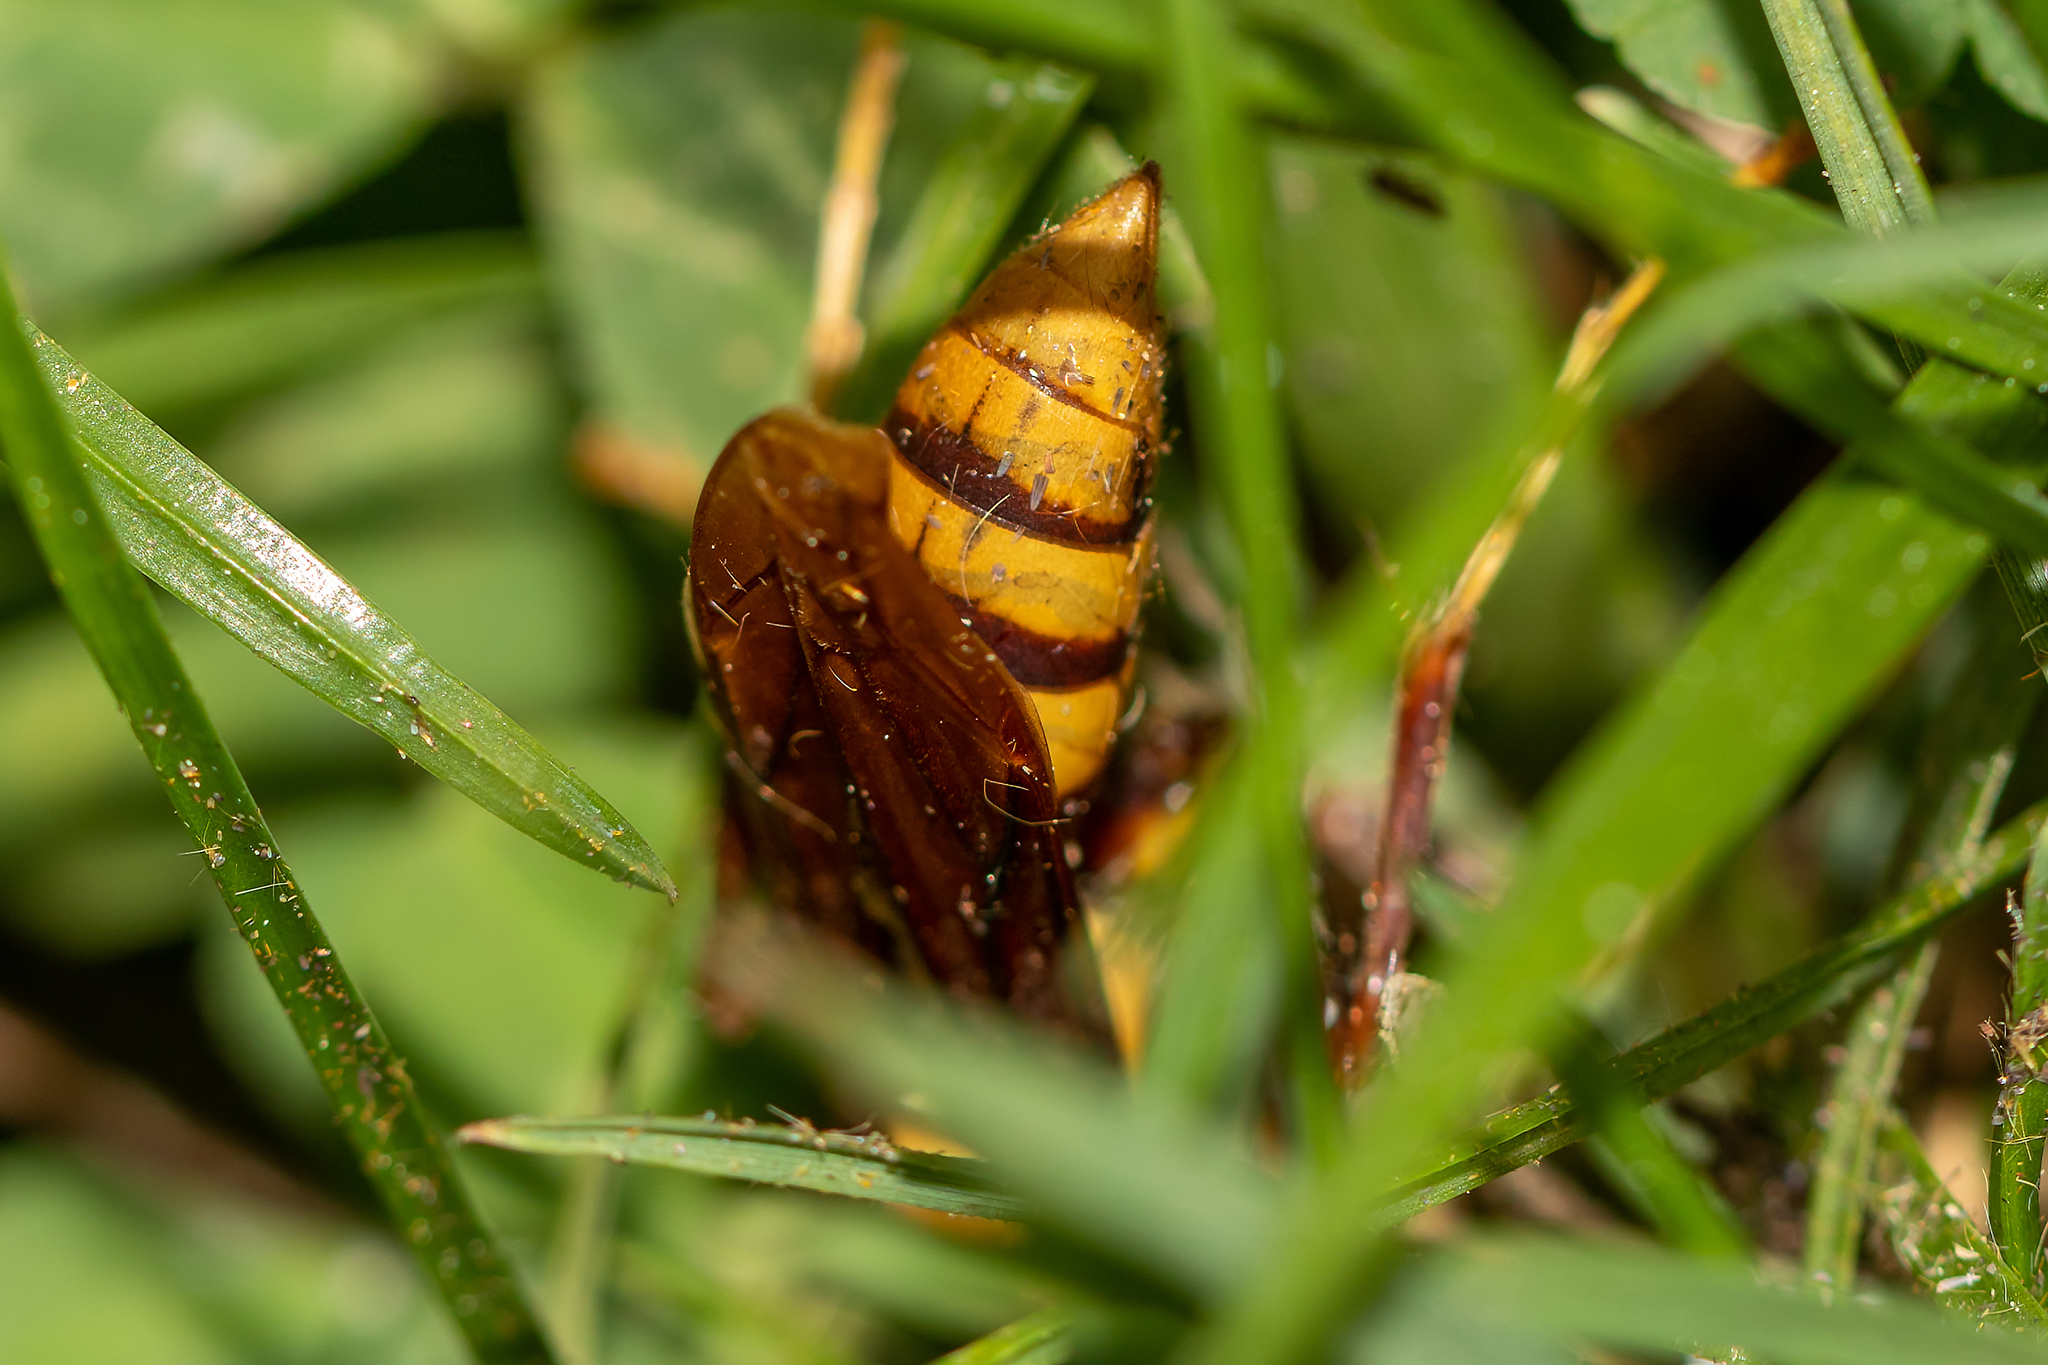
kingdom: Animalia
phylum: Arthropoda
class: Insecta
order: Hymenoptera
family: Eumenidae
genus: Polistes
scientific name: Polistes major
